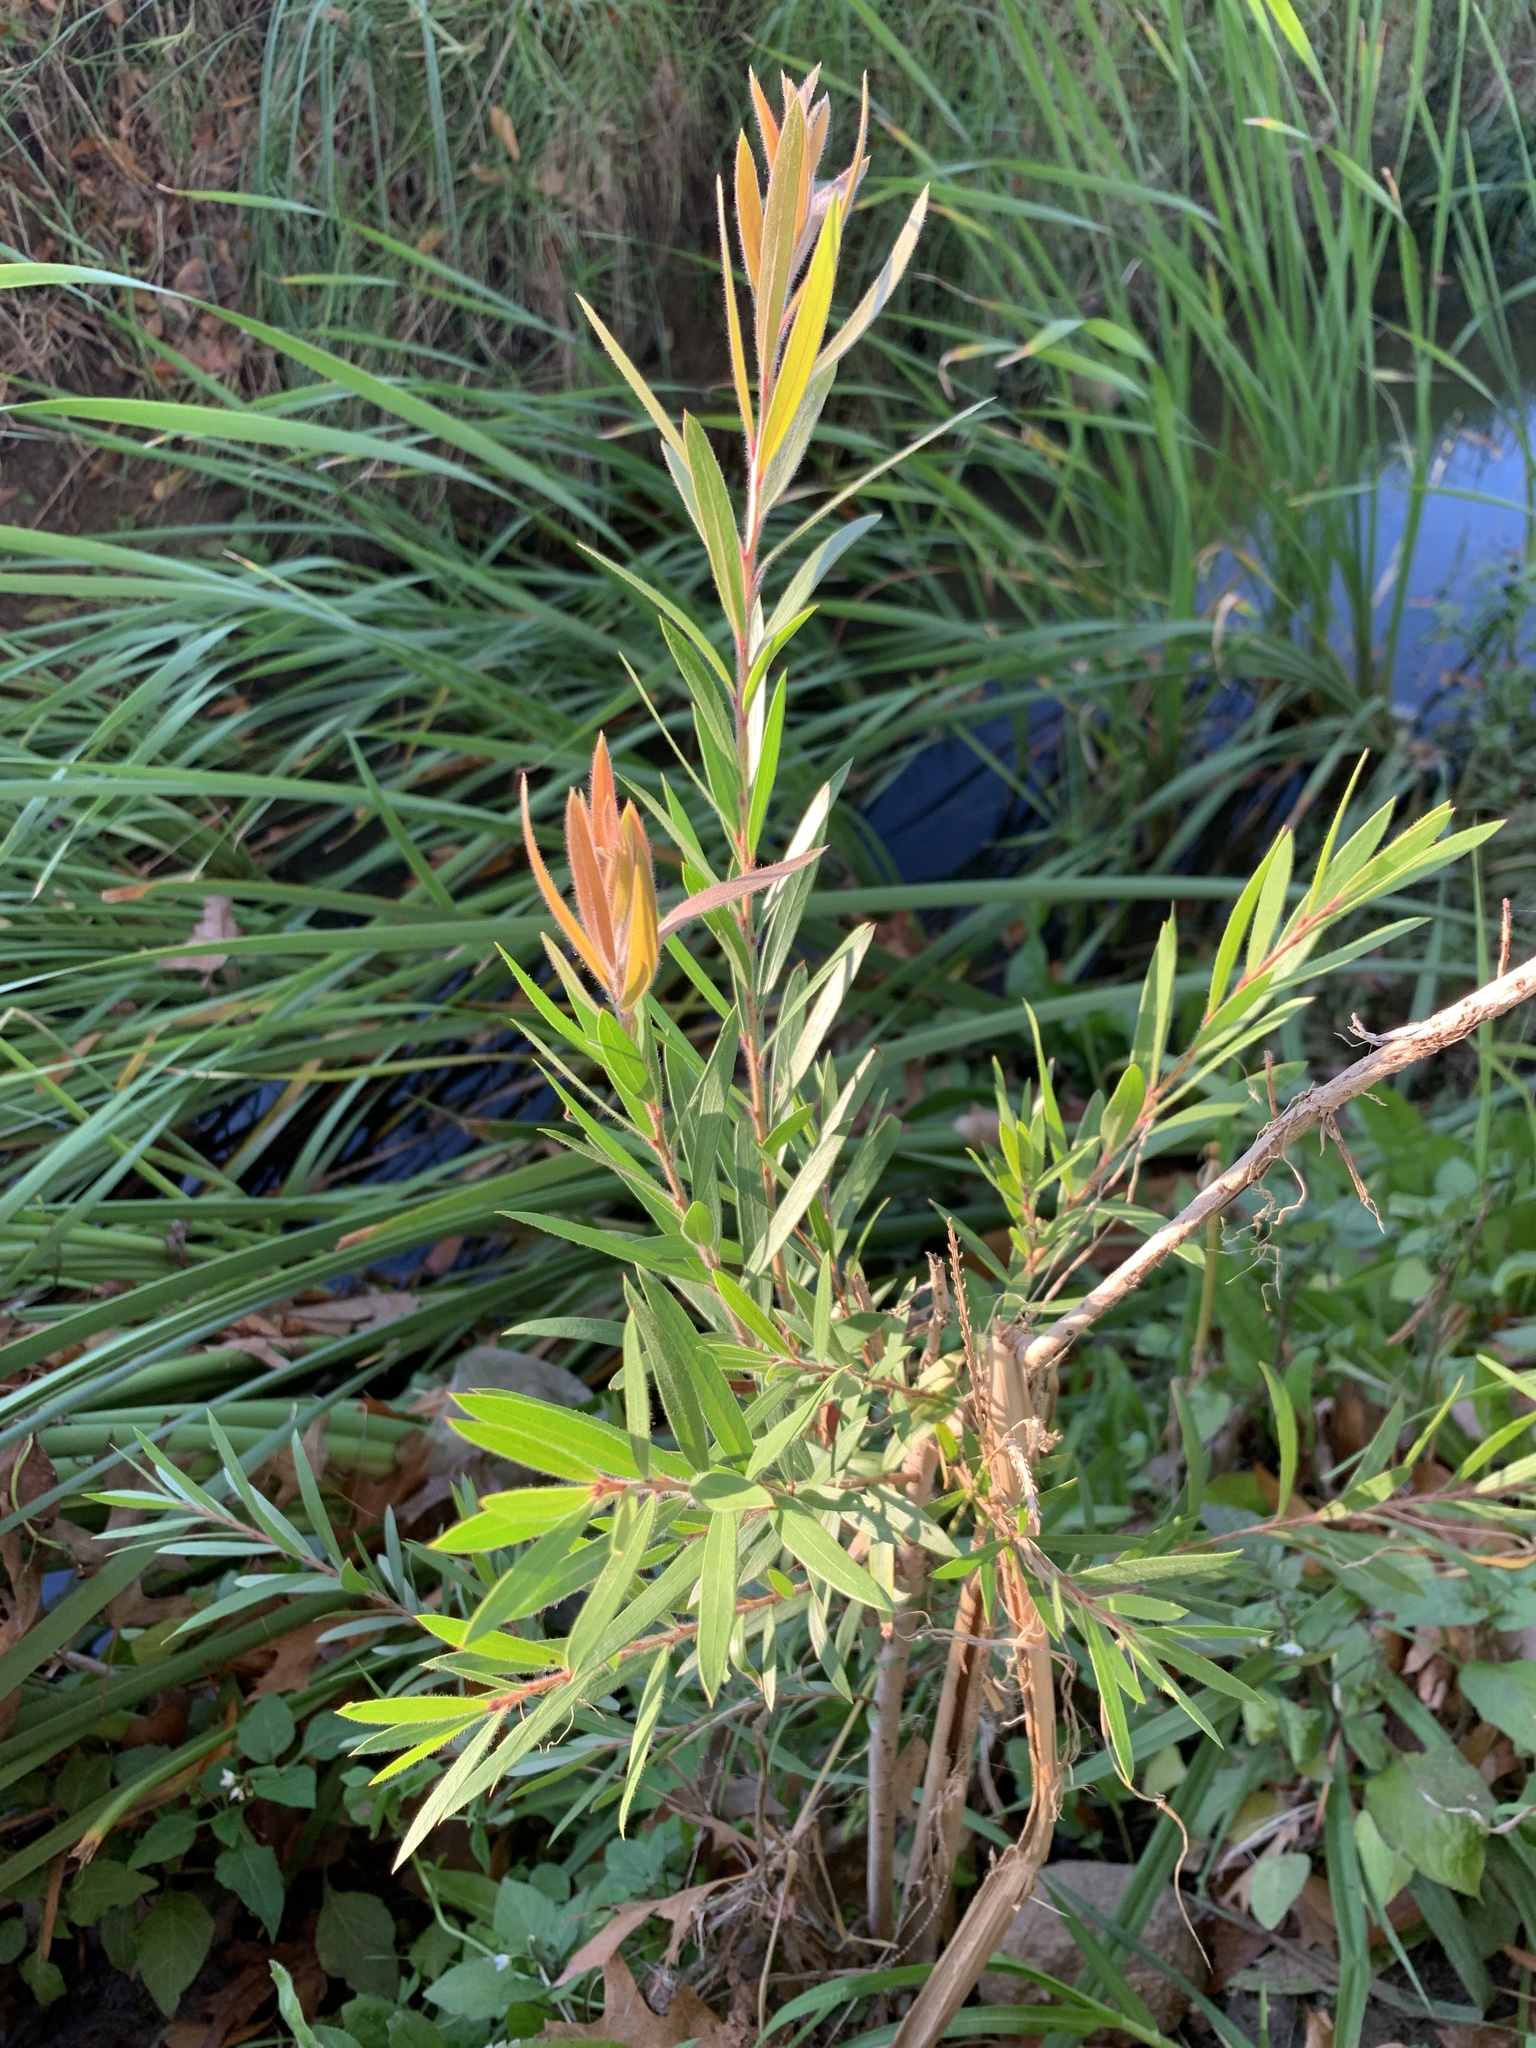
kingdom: Plantae
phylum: Tracheophyta
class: Magnoliopsida
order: Myrtales
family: Myrtaceae
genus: Callistemon
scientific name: Callistemon viminalis
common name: Drooping bottlebrush
